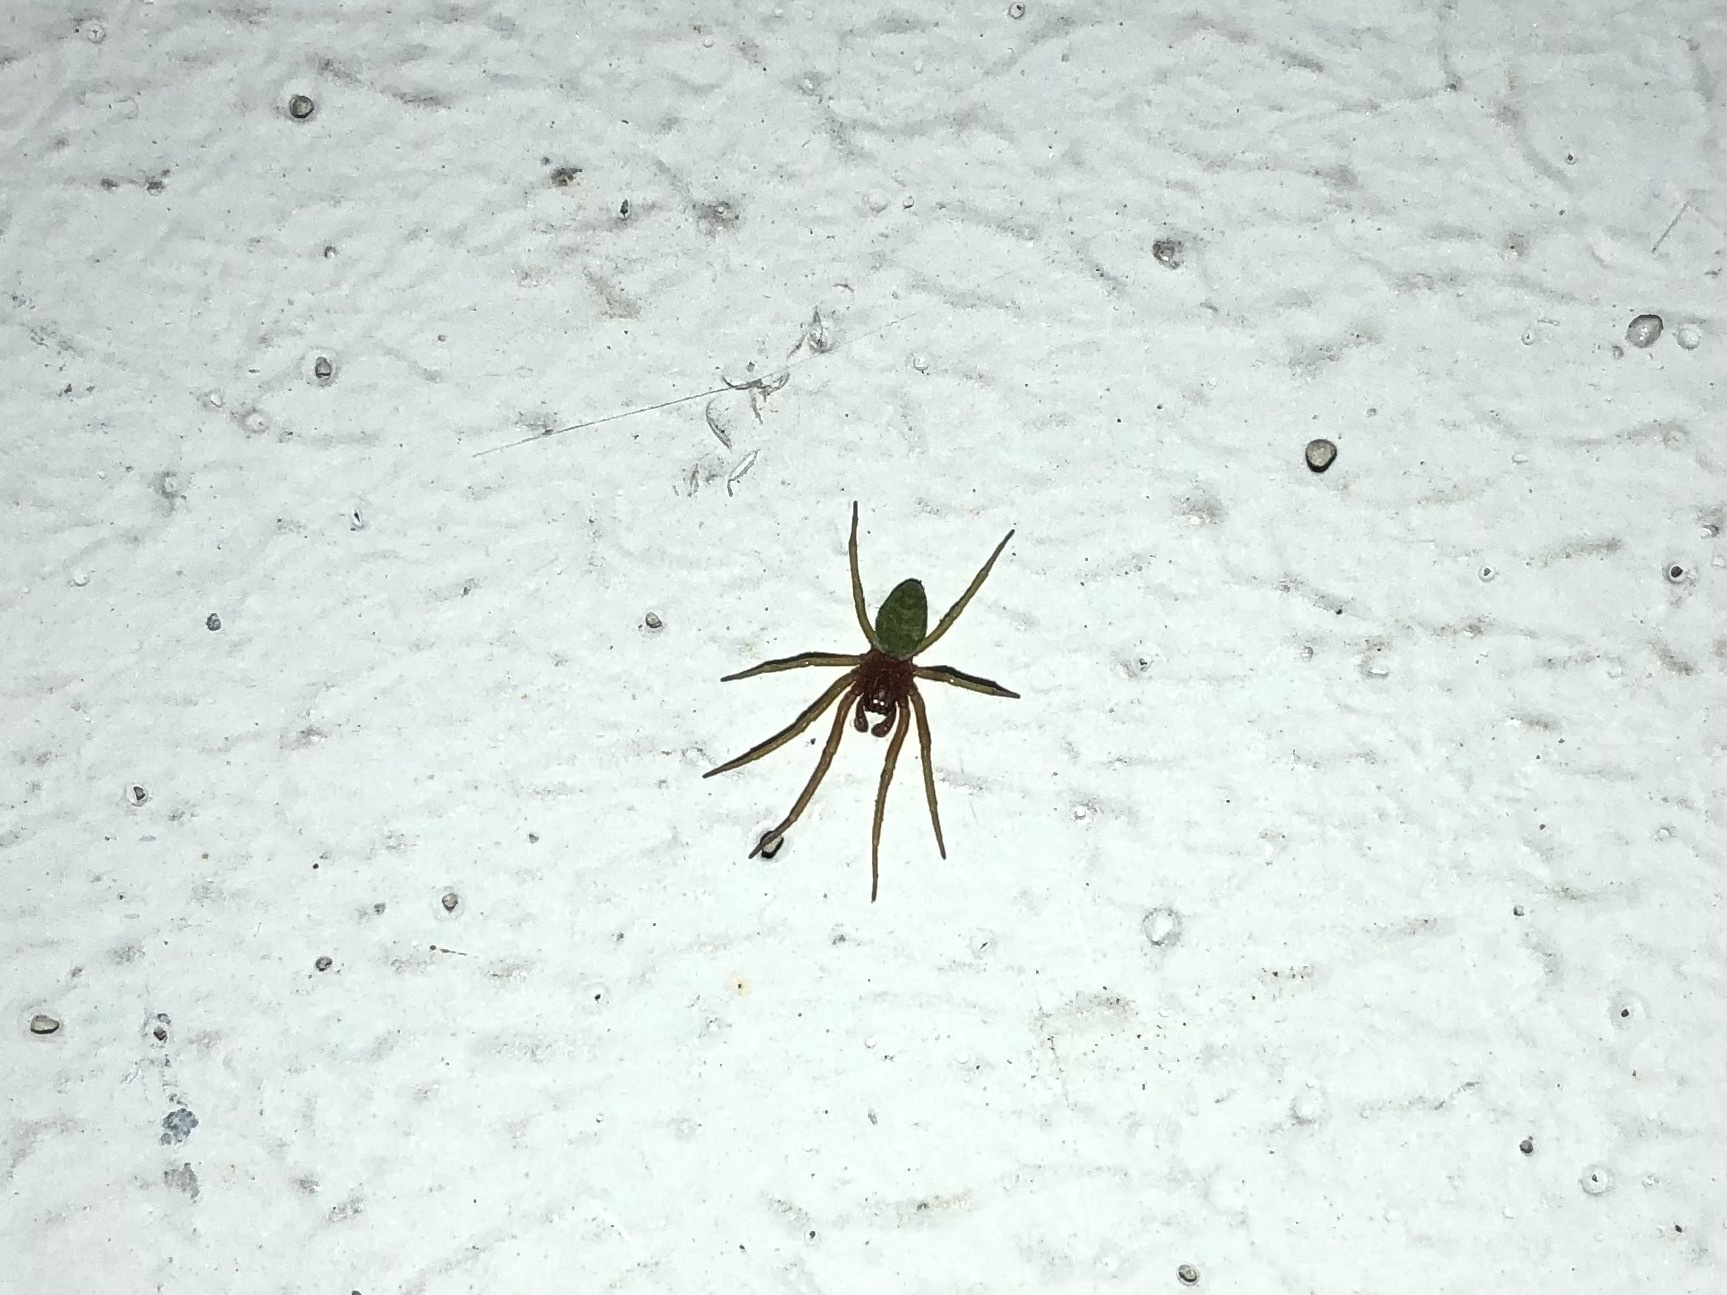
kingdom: Animalia
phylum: Arthropoda
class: Arachnida
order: Araneae
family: Dictynidae
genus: Nigma
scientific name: Nigma walckenaeri
